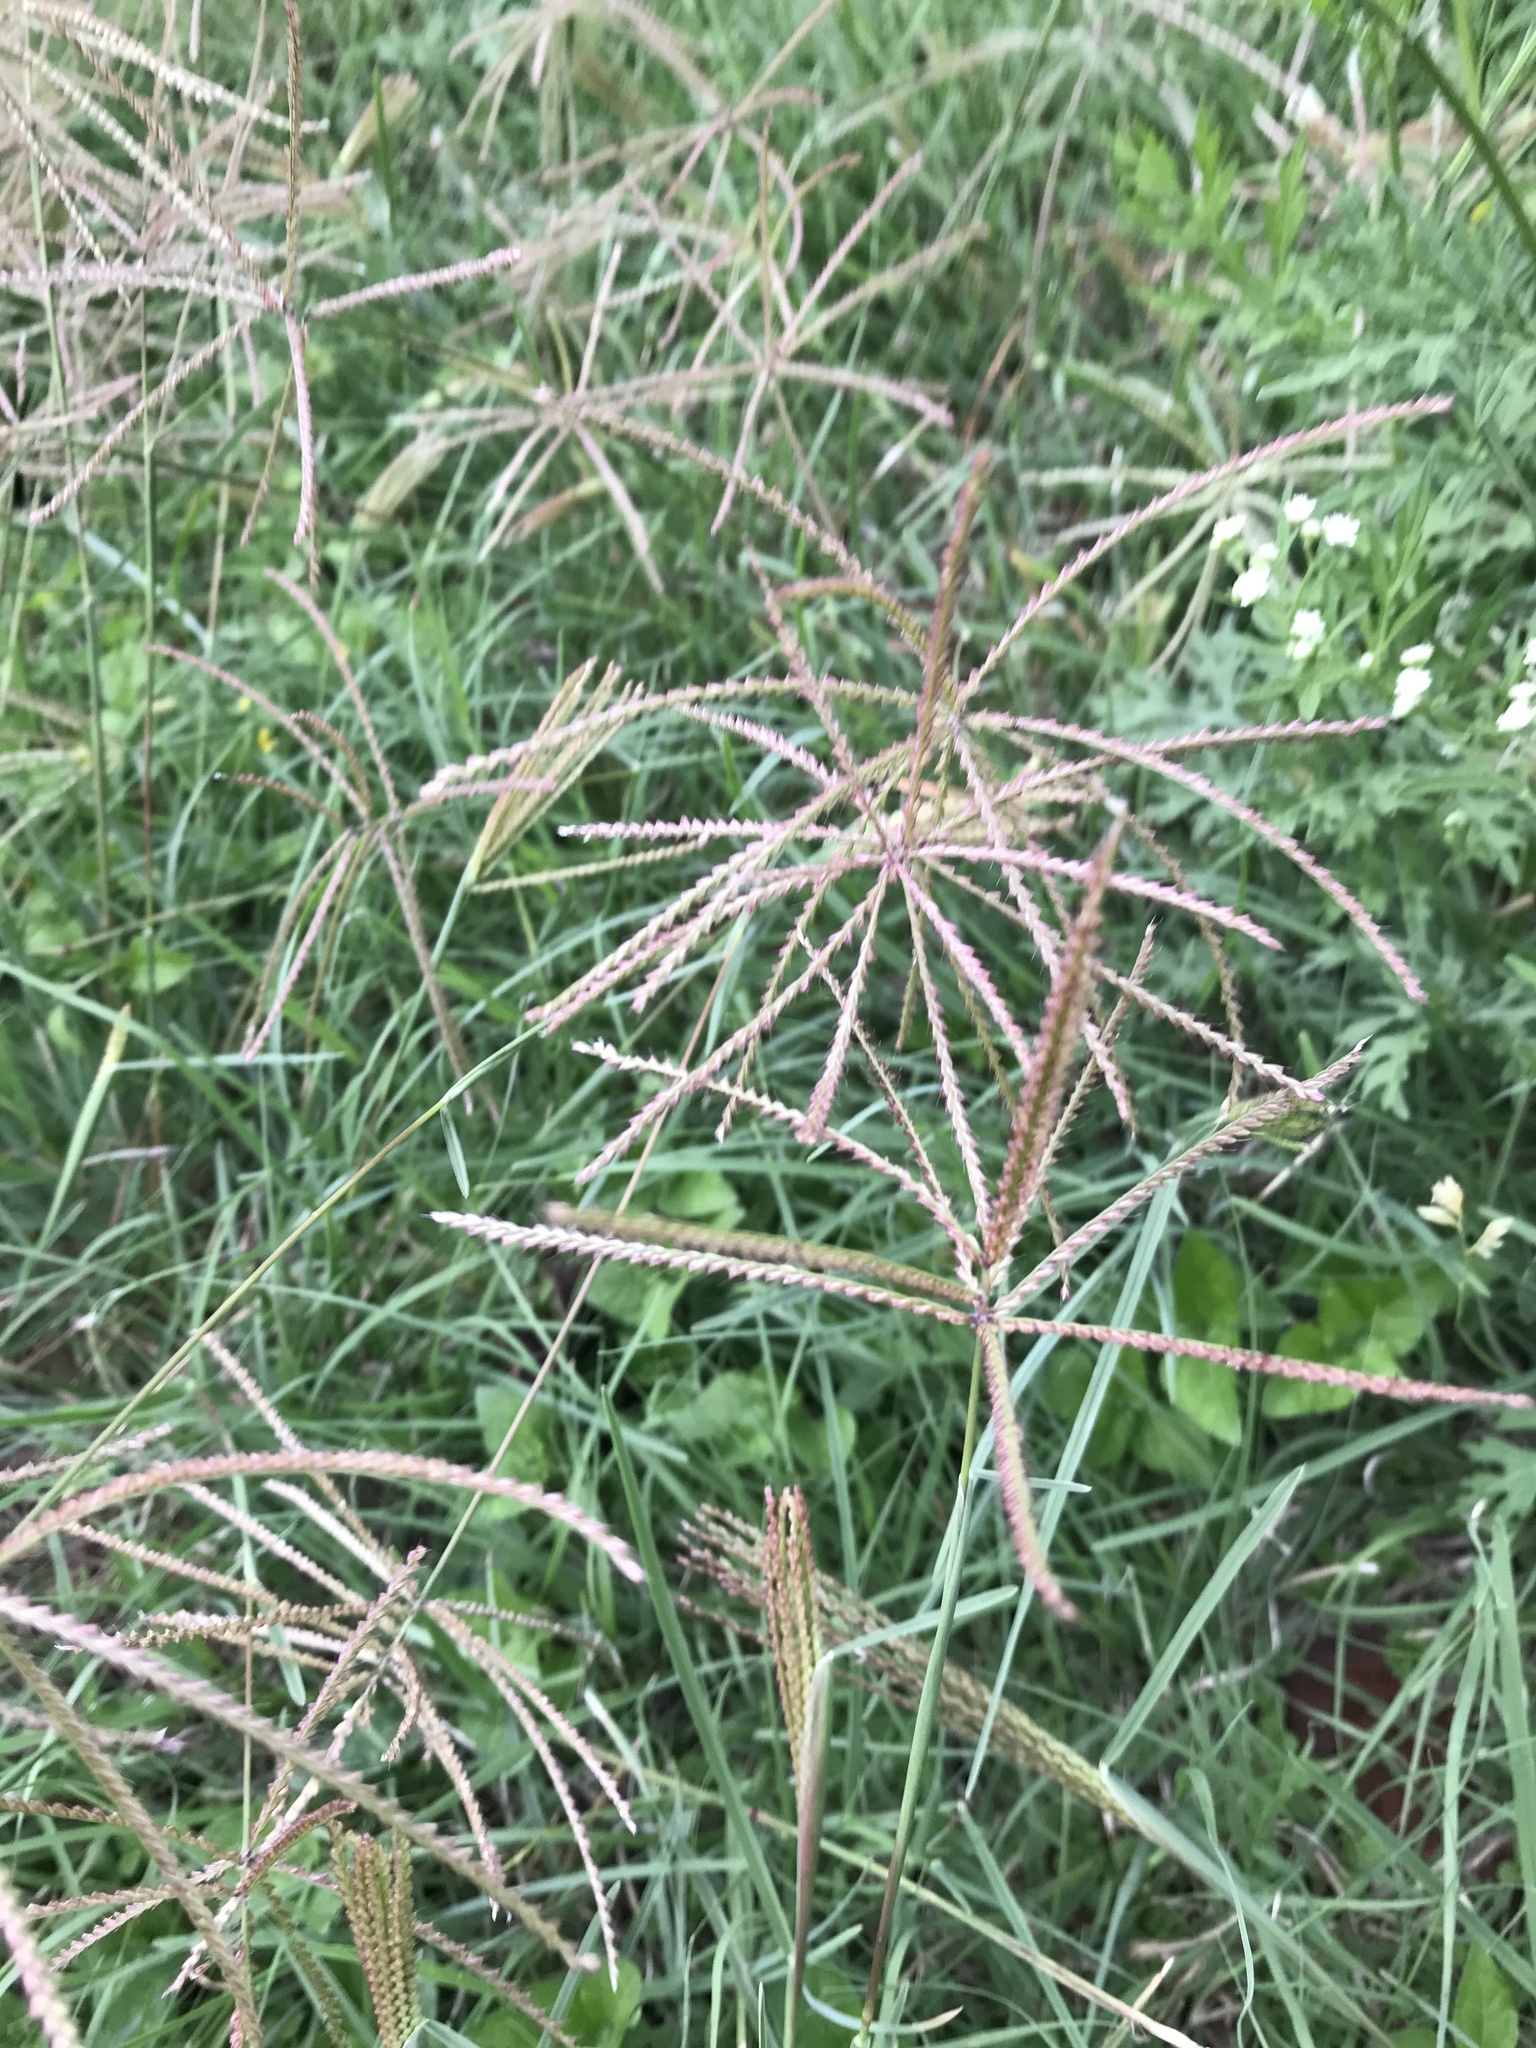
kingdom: Plantae
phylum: Tracheophyta
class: Liliopsida
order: Poales
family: Poaceae
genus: Chloris
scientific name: Chloris verticillata
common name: Tumble windmill grass
